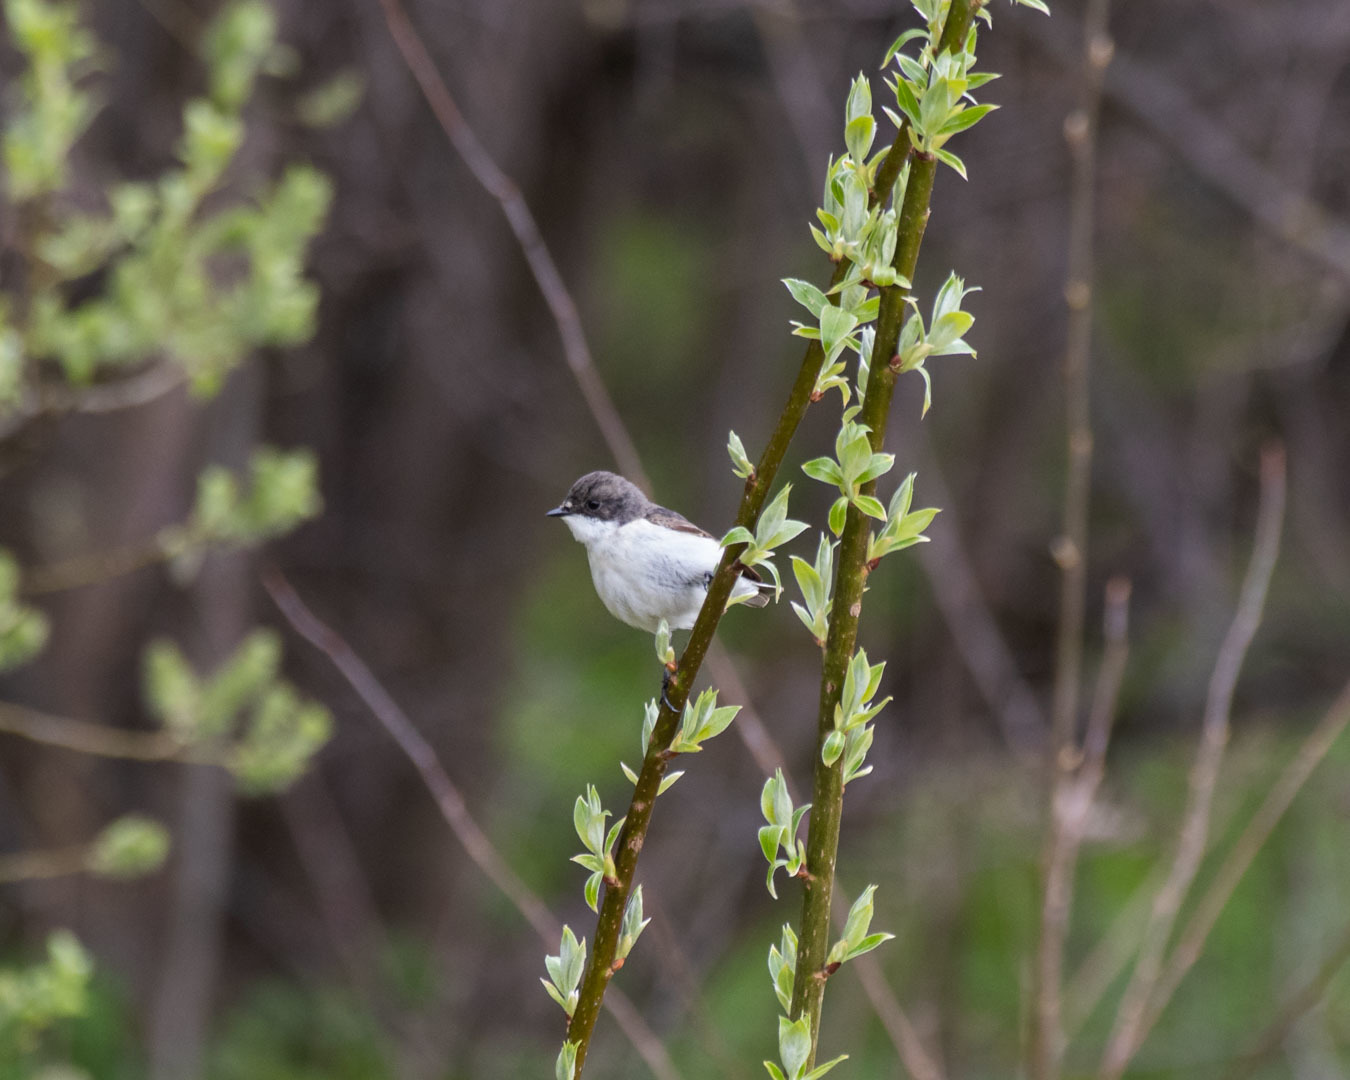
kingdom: Animalia
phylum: Chordata
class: Aves
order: Passeriformes
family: Muscicapidae
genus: Ficedula
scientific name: Ficedula hypoleuca
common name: European pied flycatcher
